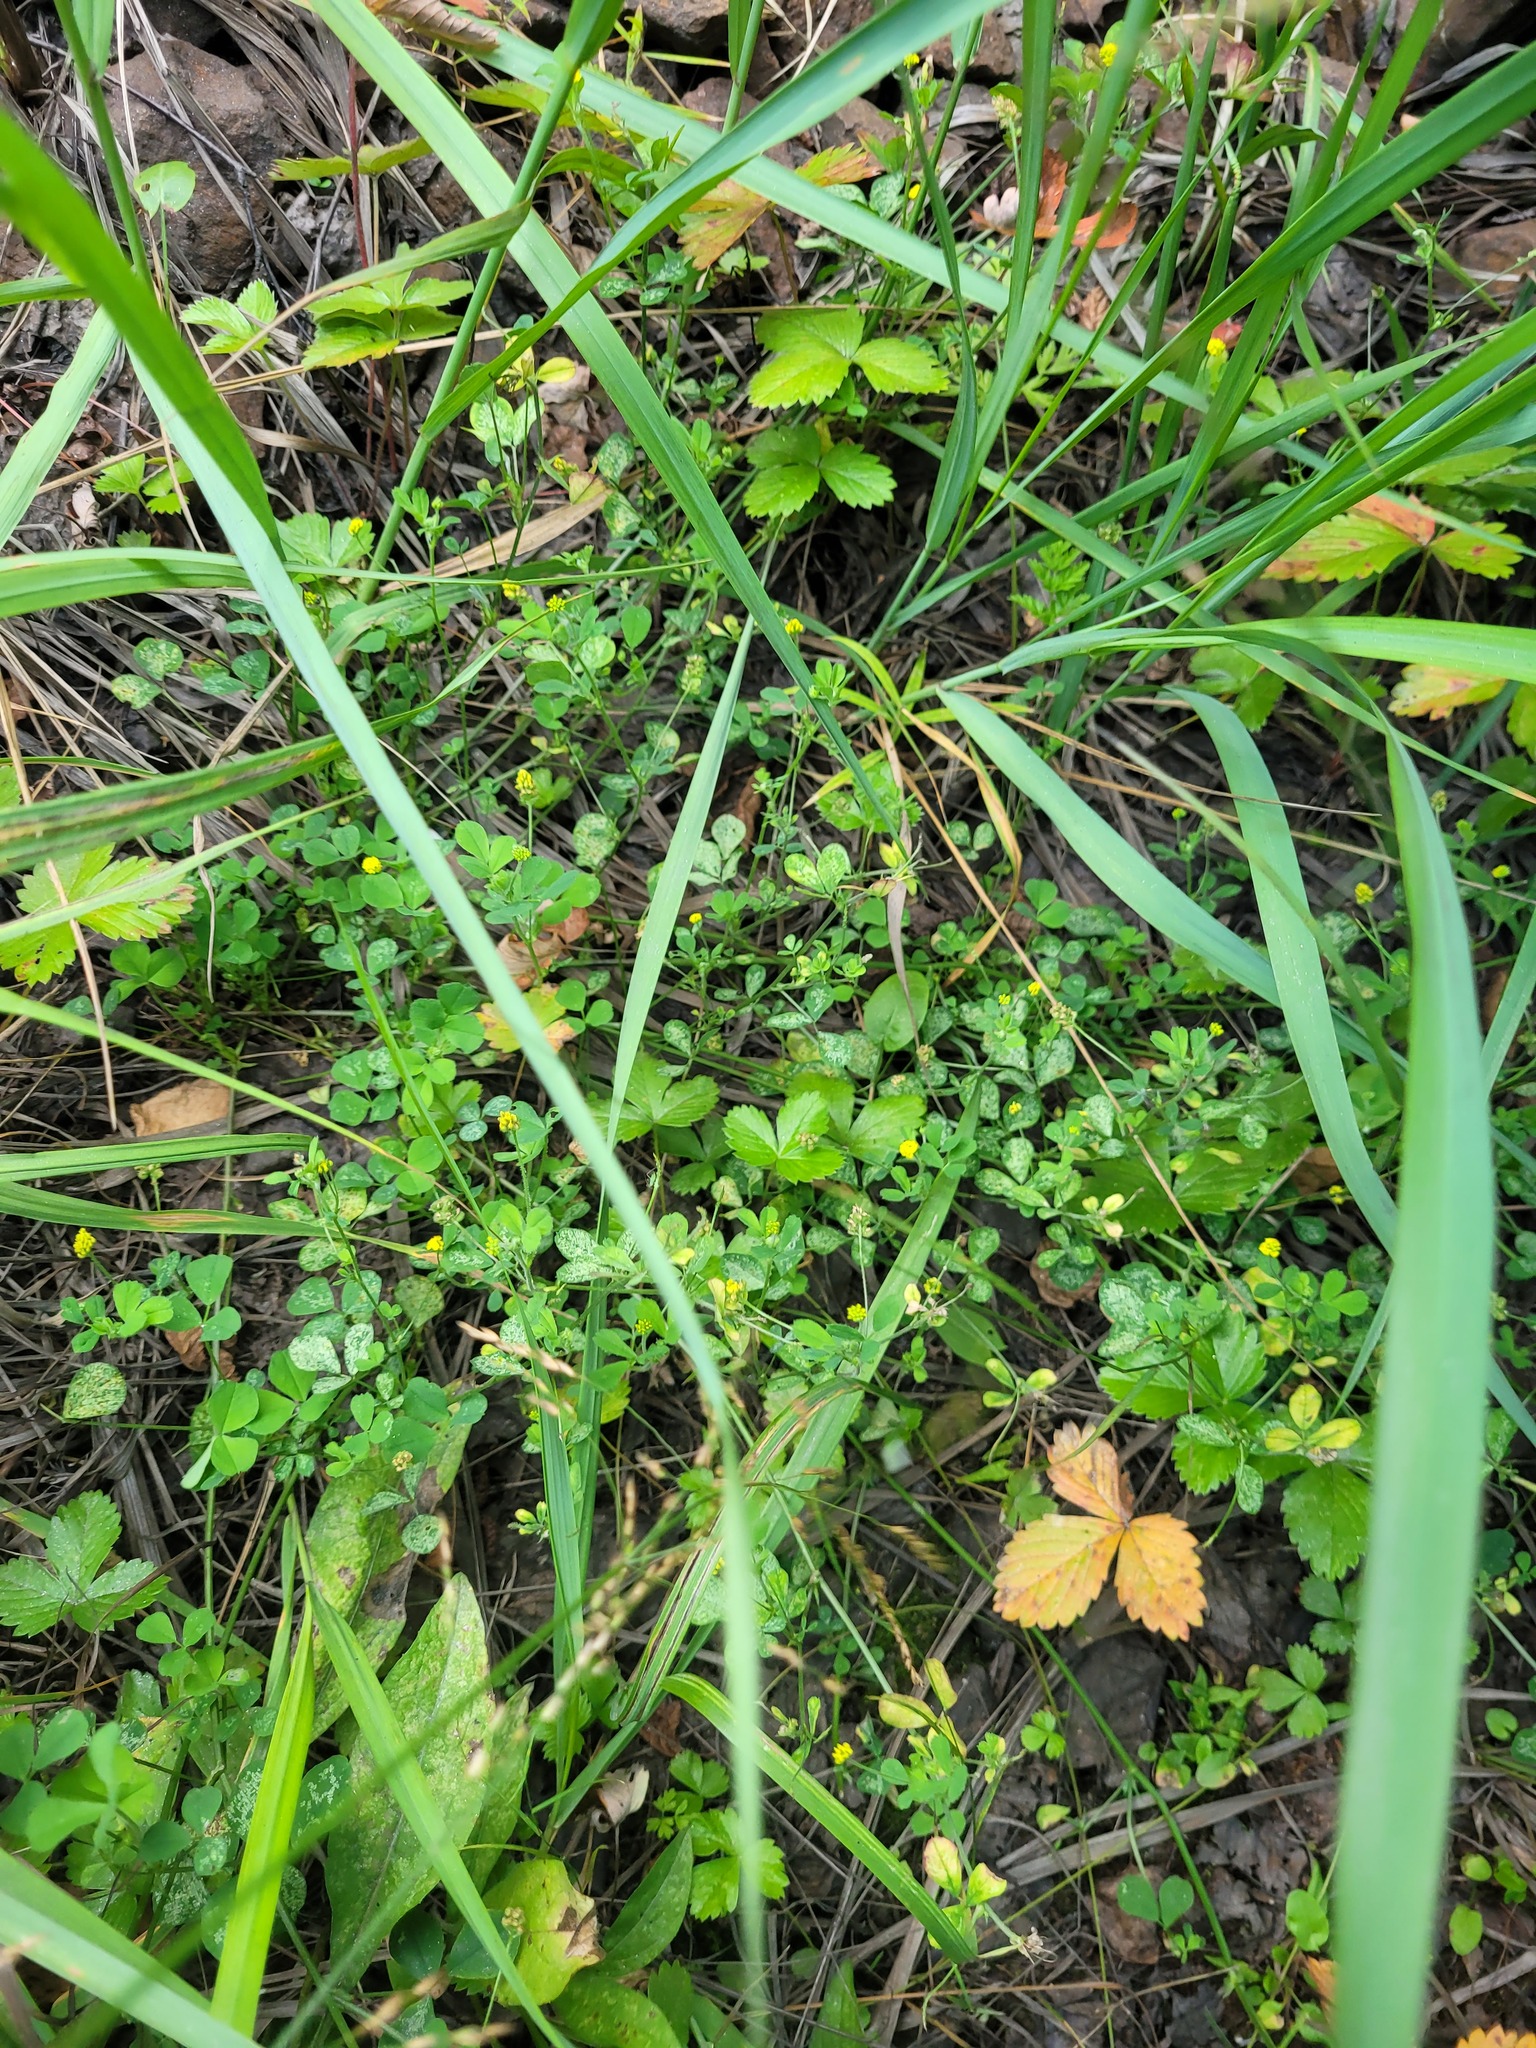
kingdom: Plantae
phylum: Tracheophyta
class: Magnoliopsida
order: Fabales
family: Fabaceae
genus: Medicago
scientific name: Medicago lupulina
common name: Black medick
